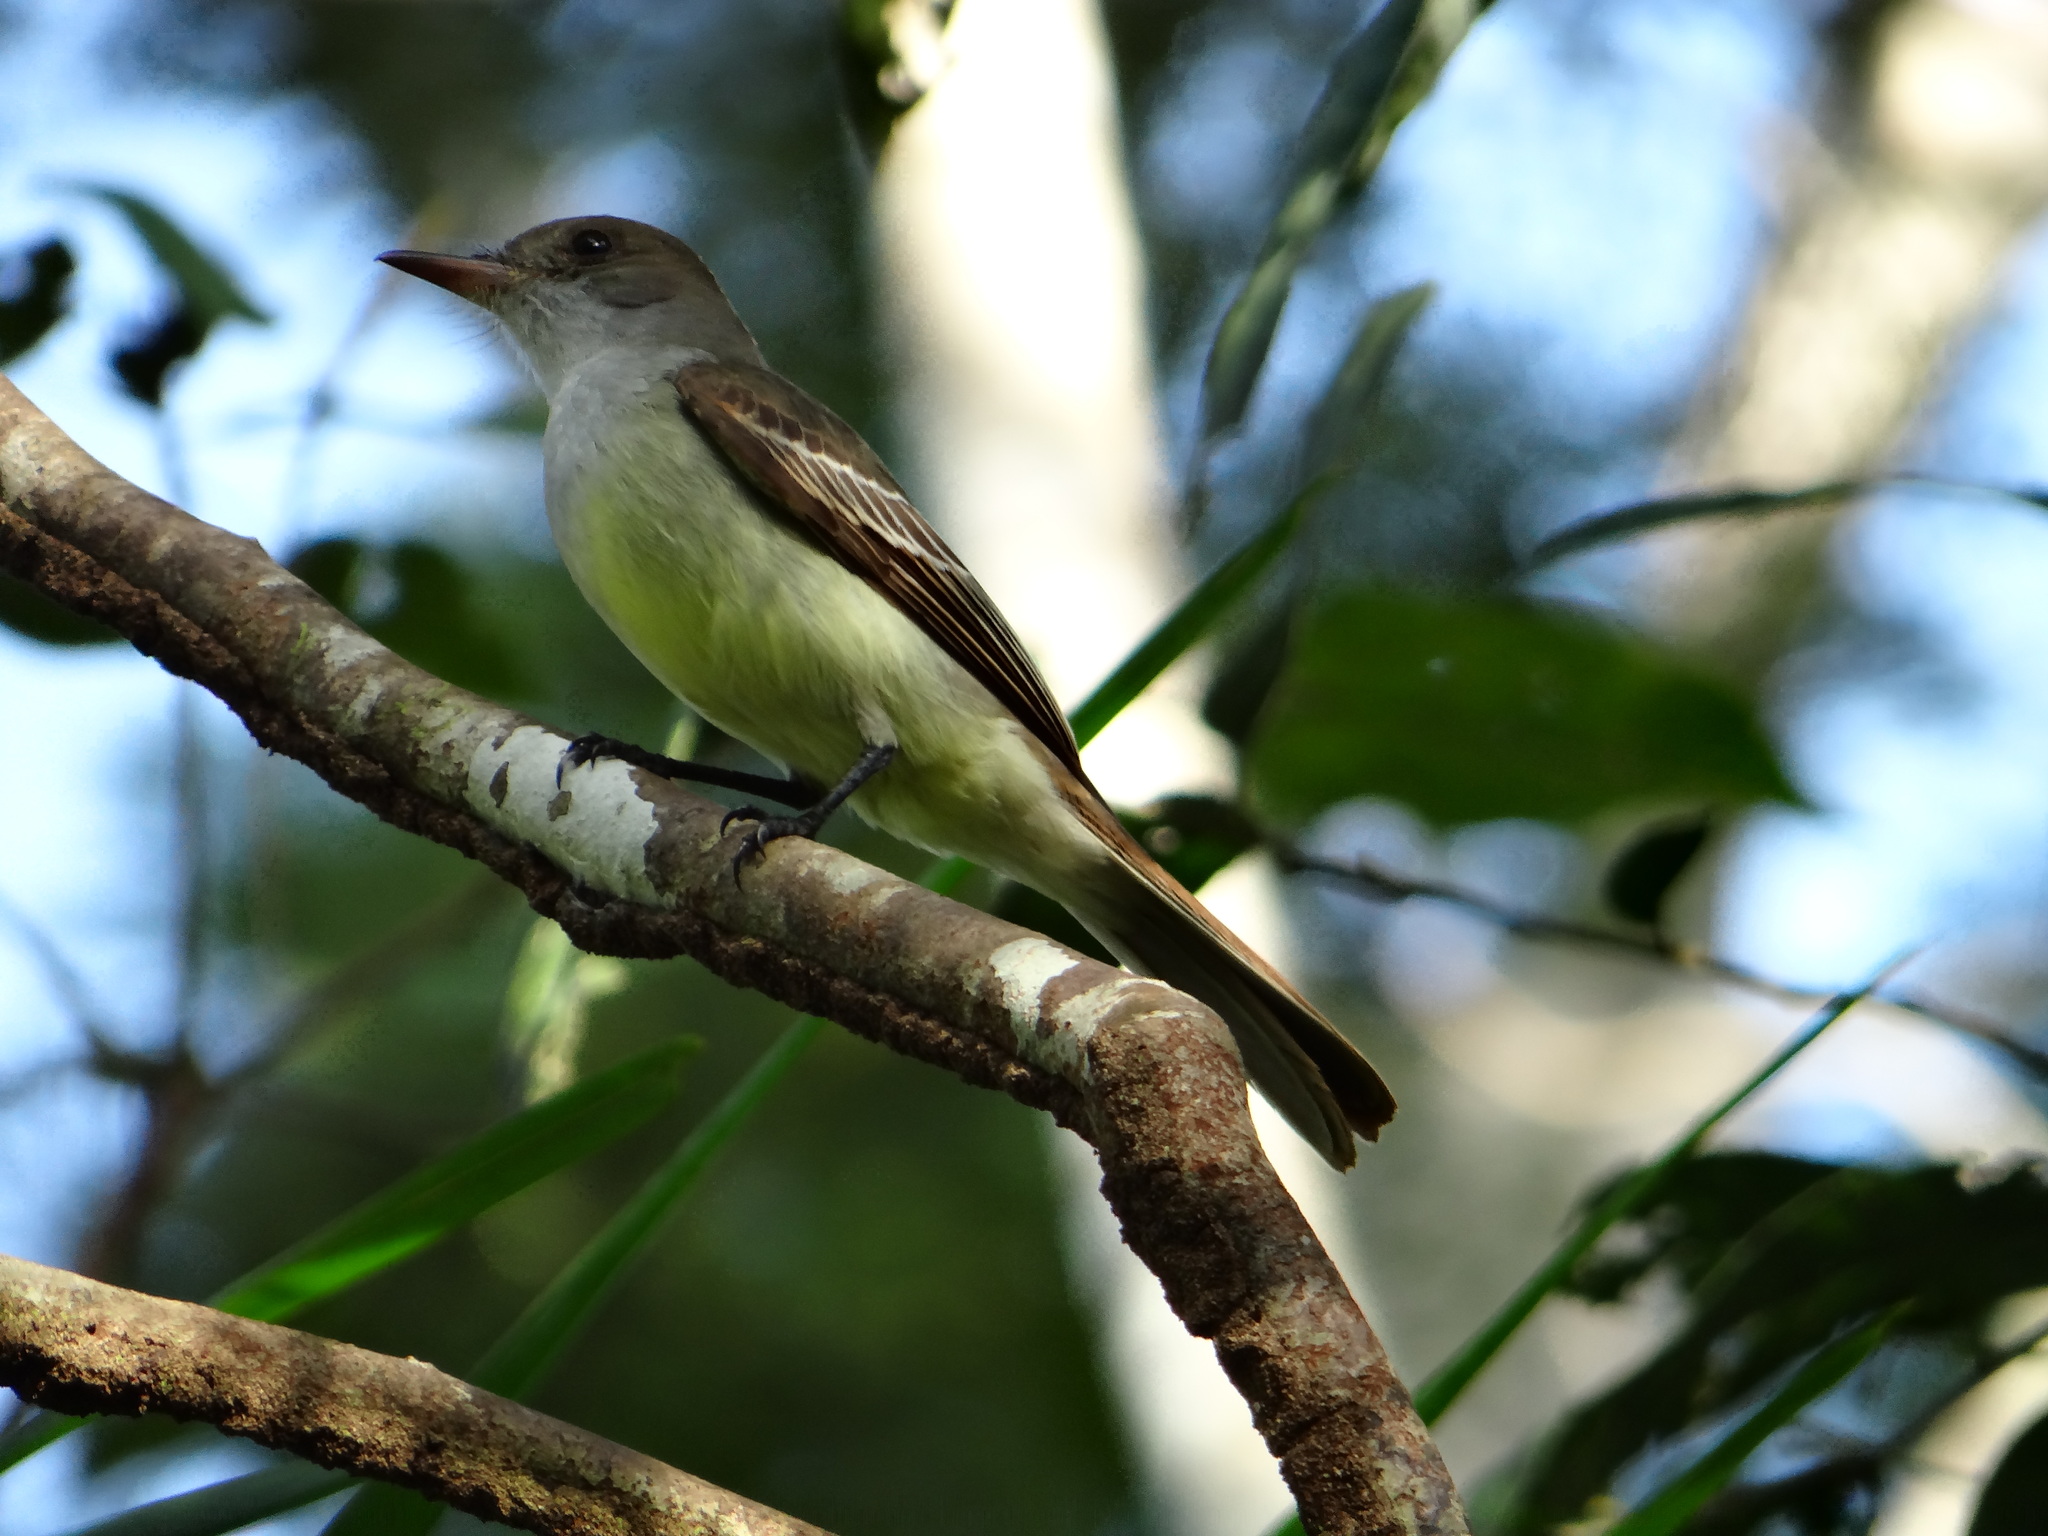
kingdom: Animalia
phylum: Chordata
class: Aves
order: Passeriformes
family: Tyrannidae
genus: Myiarchus
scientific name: Myiarchus swainsoni
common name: Swainson's flycatcher
